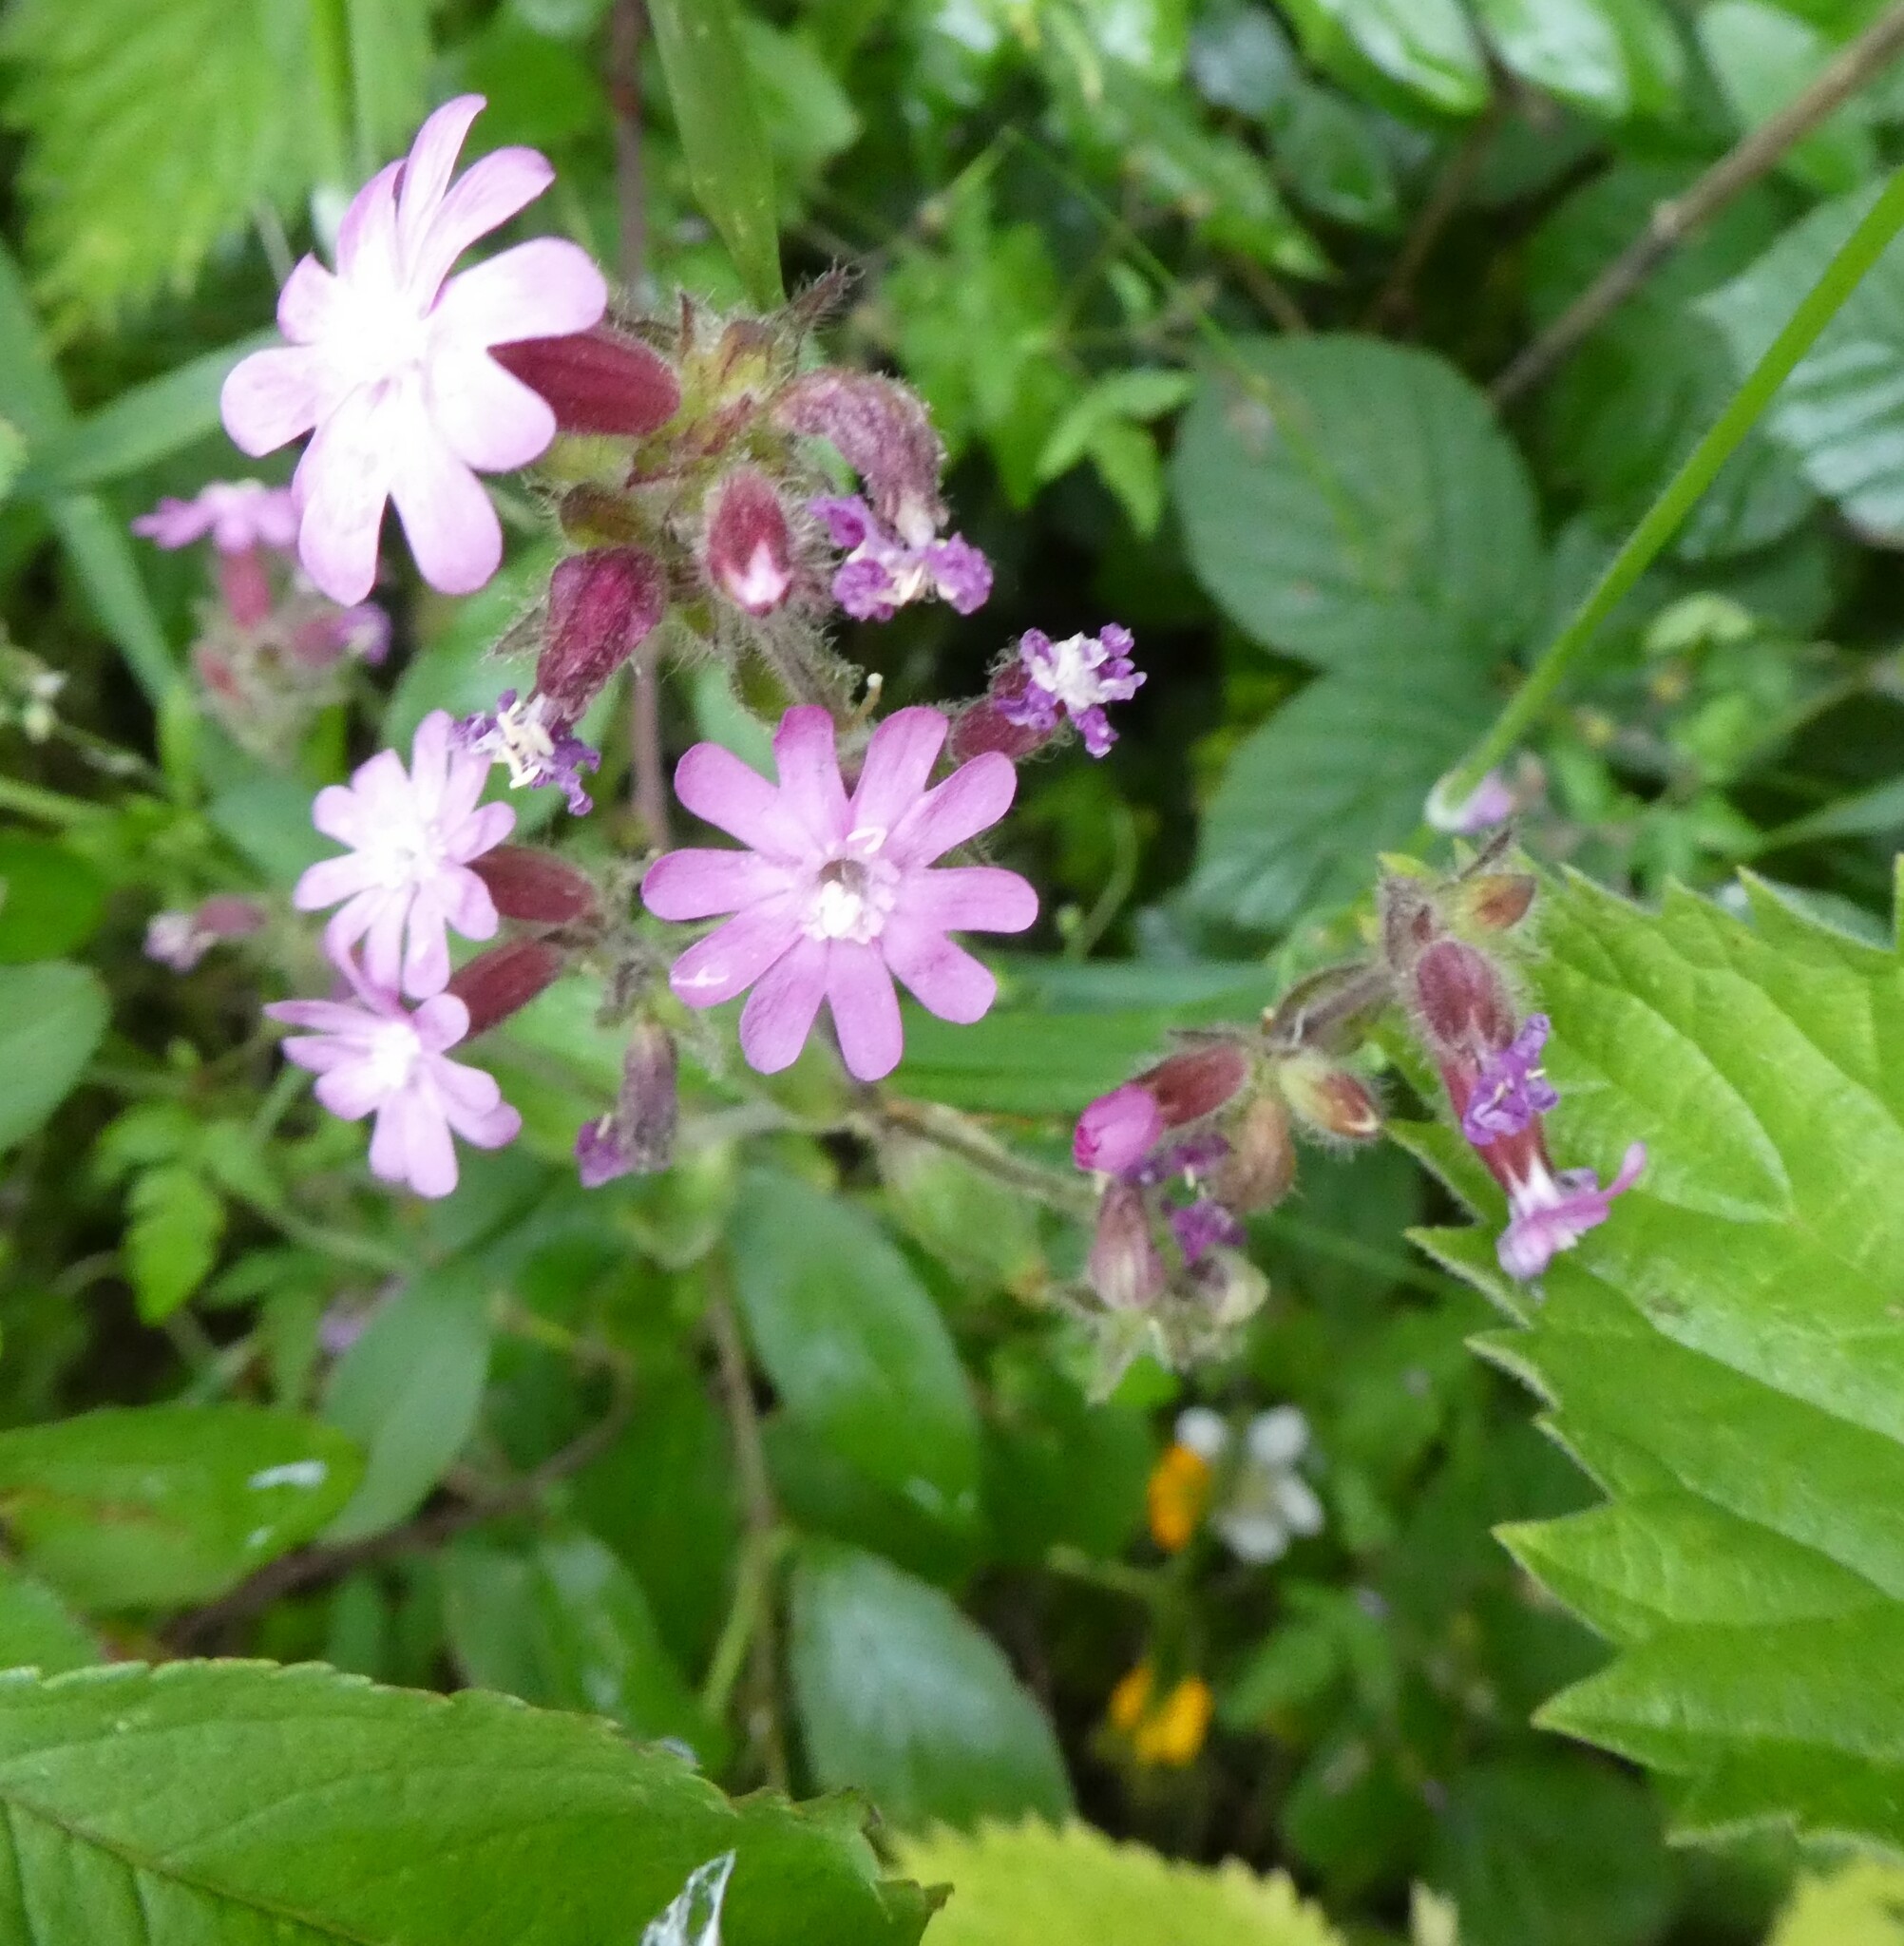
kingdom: Plantae
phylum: Tracheophyta
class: Magnoliopsida
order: Caryophyllales
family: Caryophyllaceae
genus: Silene
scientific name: Silene dioica
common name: Red campion
